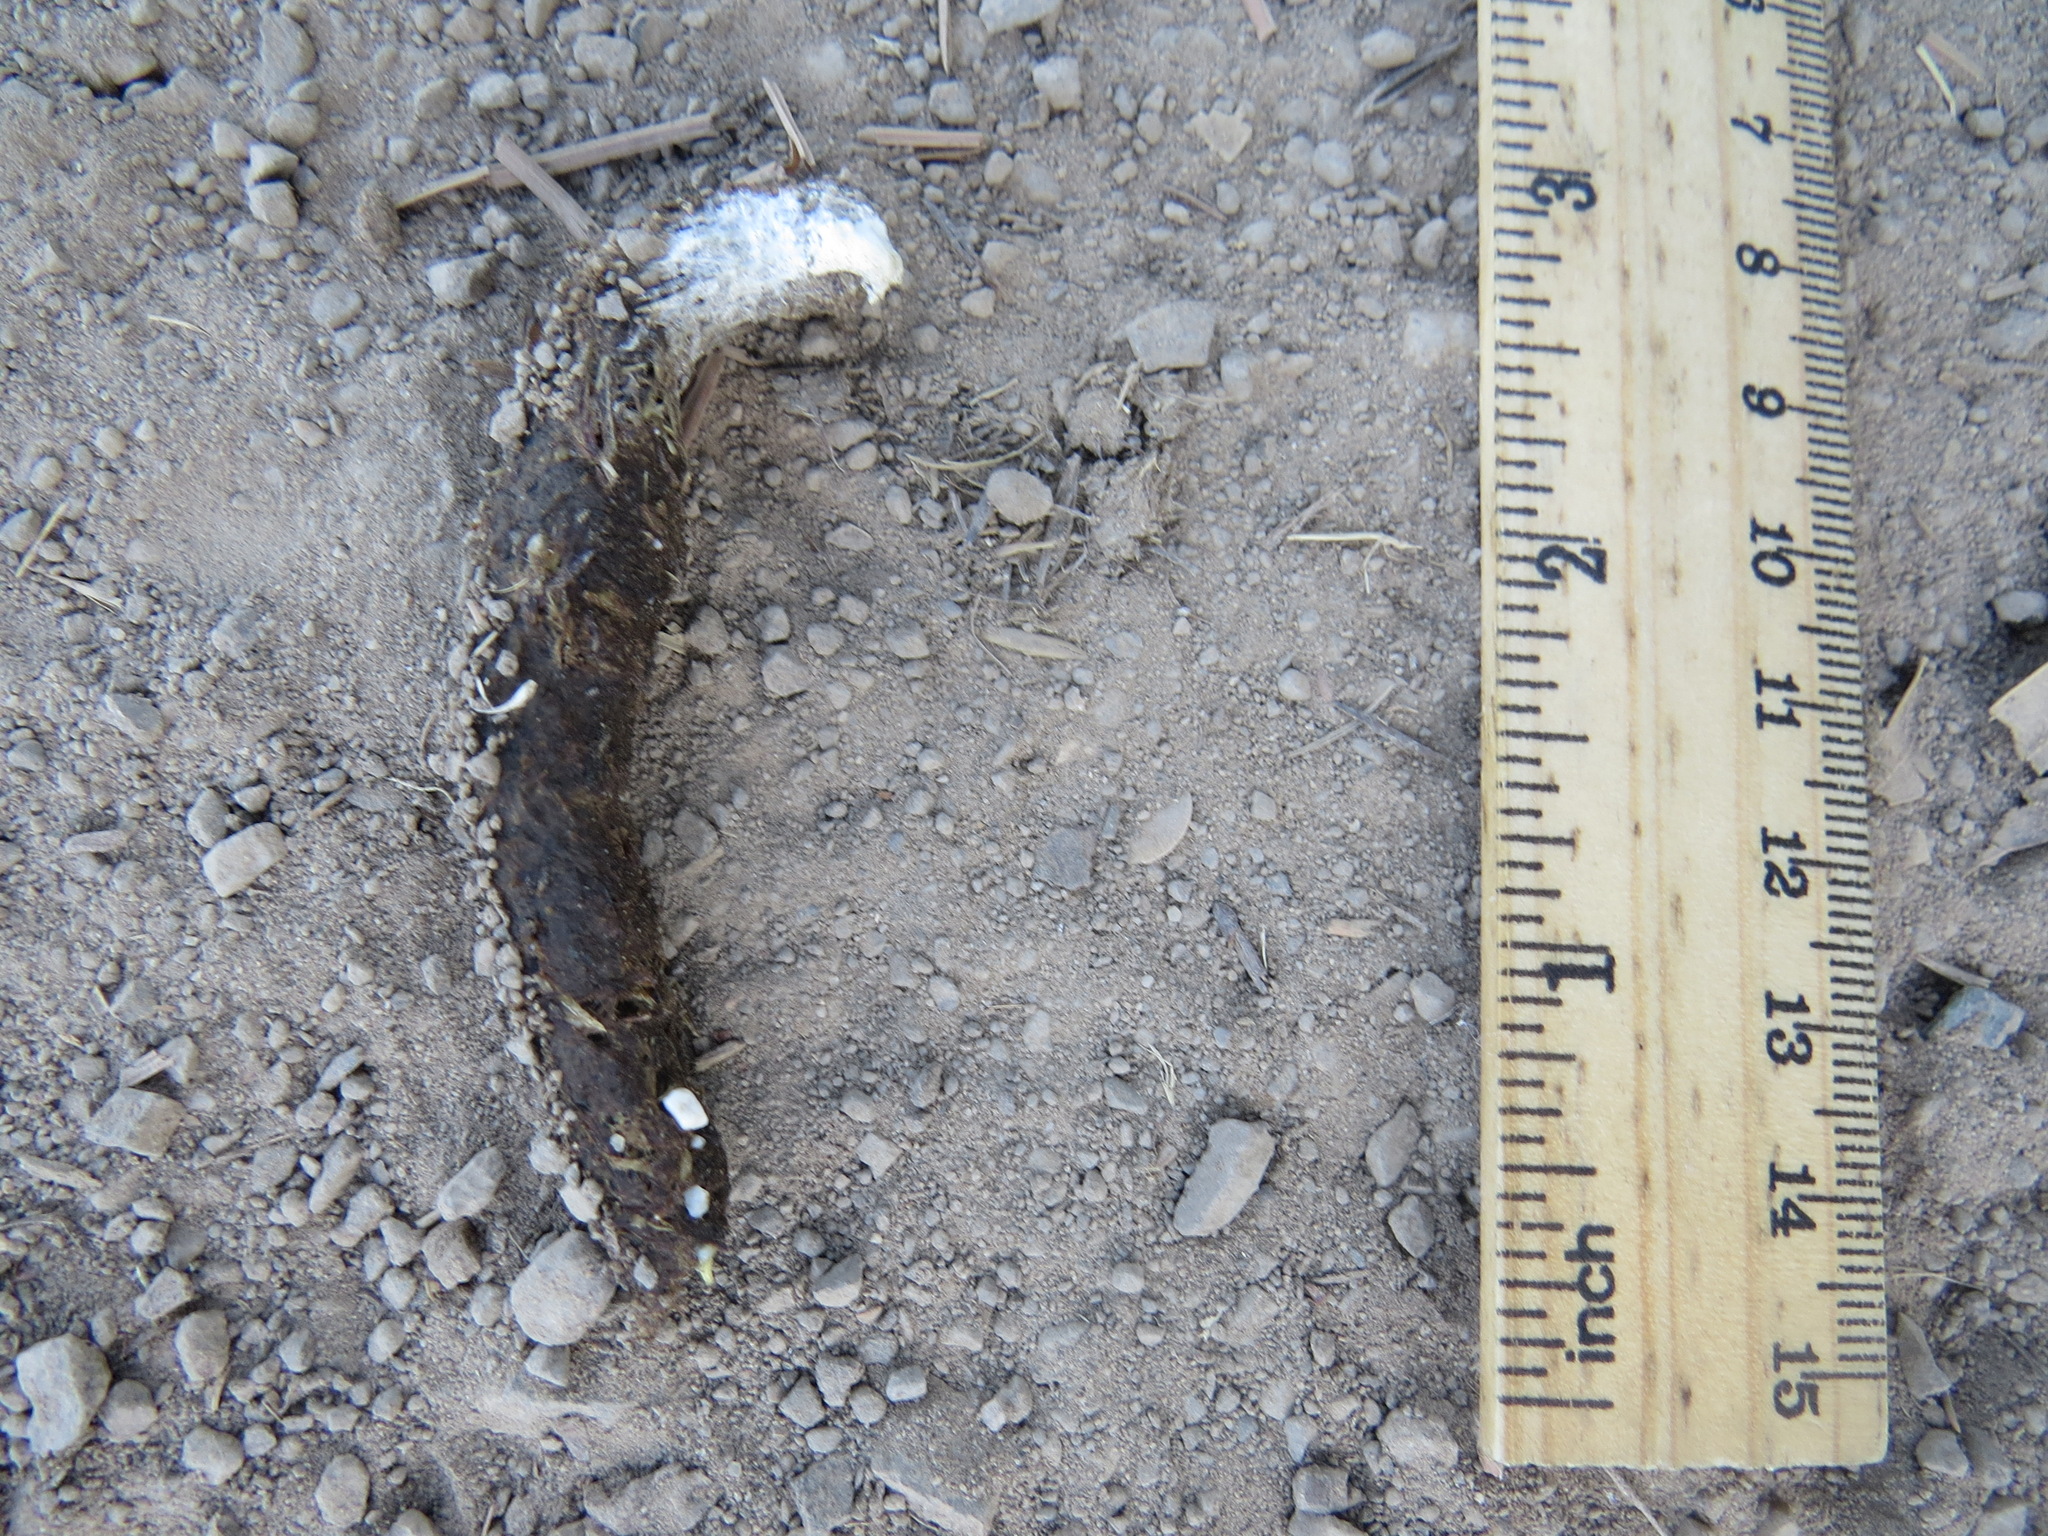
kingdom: Animalia
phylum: Chordata
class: Aves
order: Galliformes
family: Phasianidae
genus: Meleagris
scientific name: Meleagris gallopavo
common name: Wild turkey
